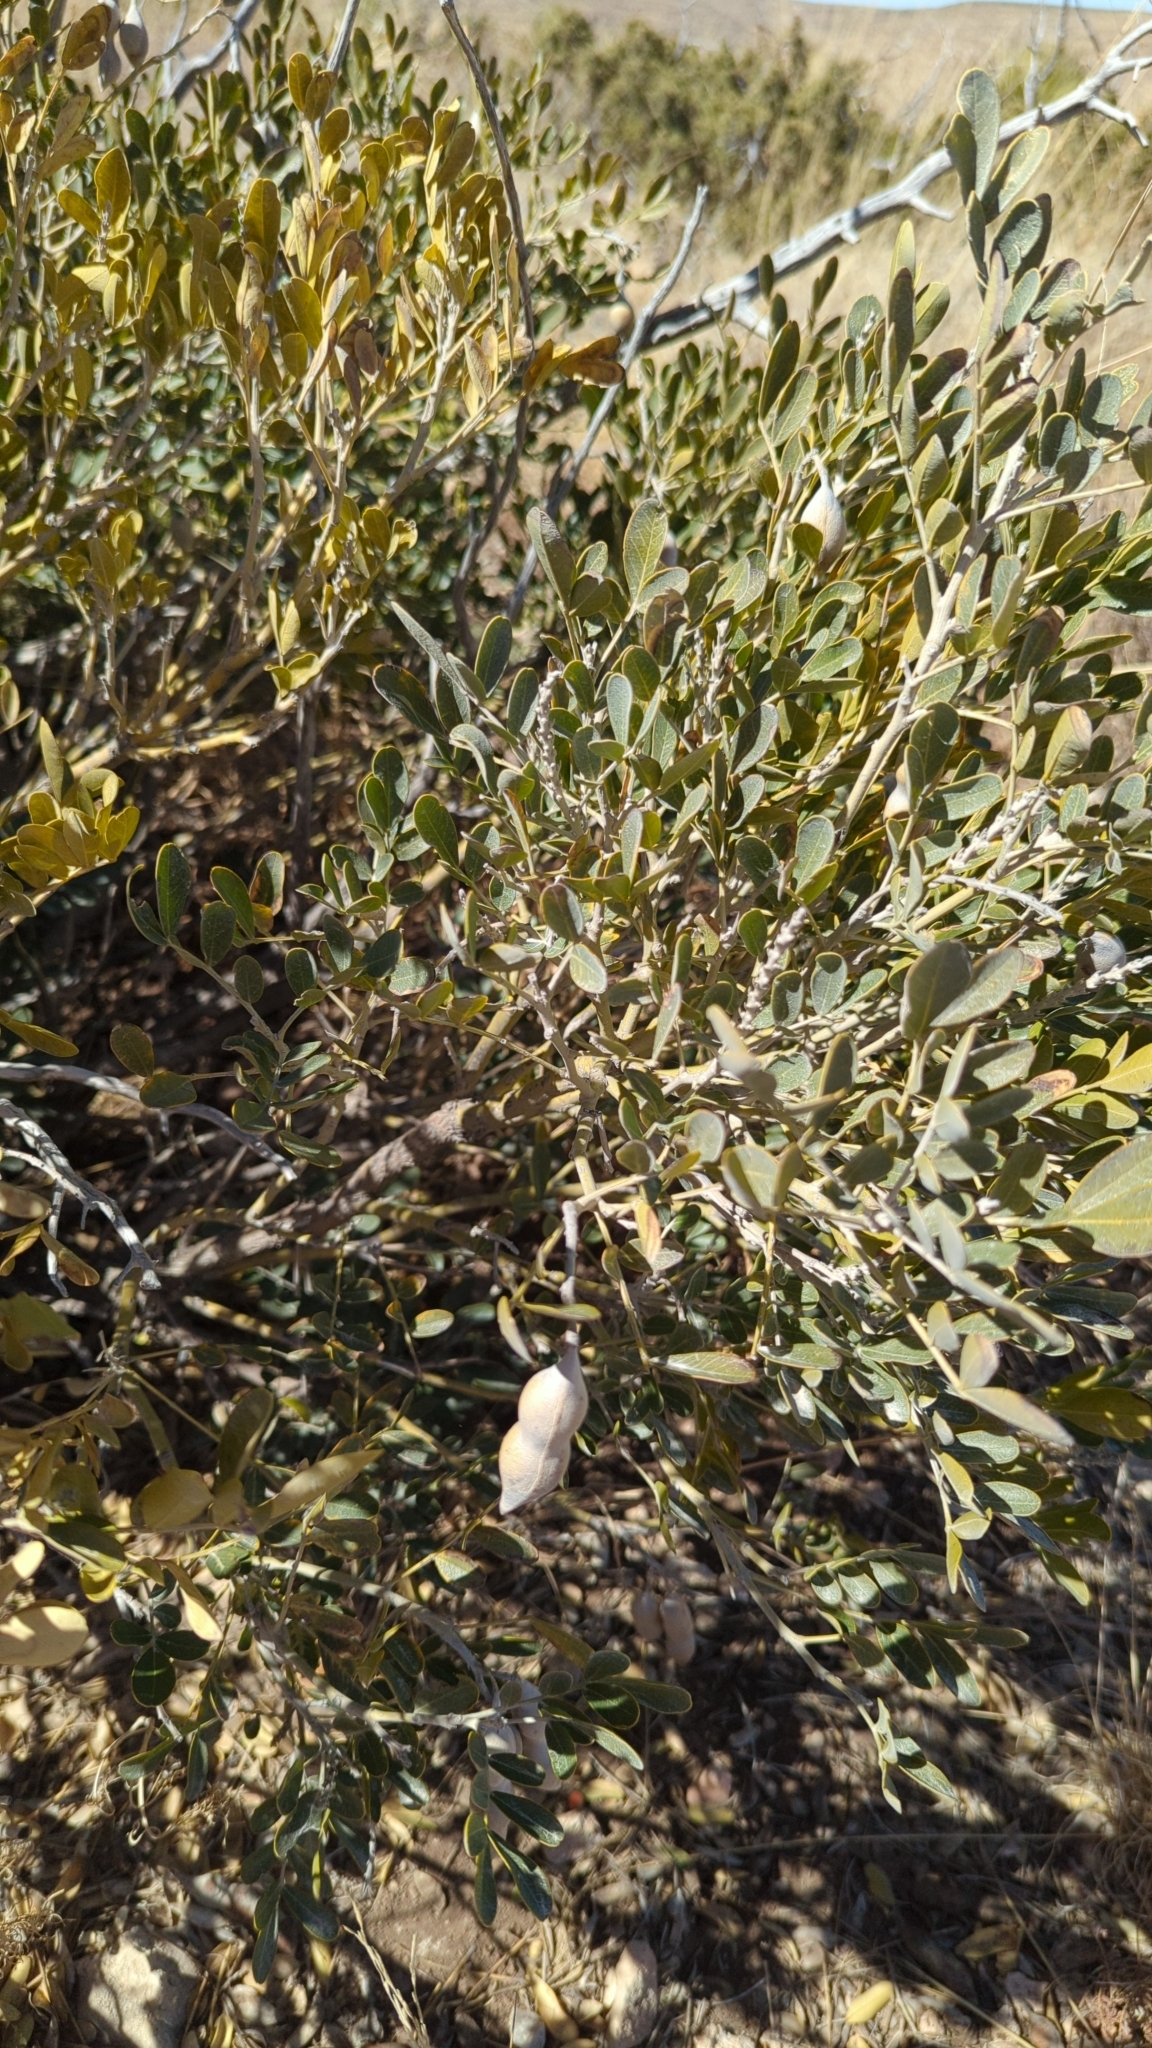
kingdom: Plantae
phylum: Tracheophyta
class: Magnoliopsida
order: Fabales
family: Fabaceae
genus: Dermatophyllum
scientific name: Dermatophyllum secundiflorum
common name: Texas-mountain-laurel
